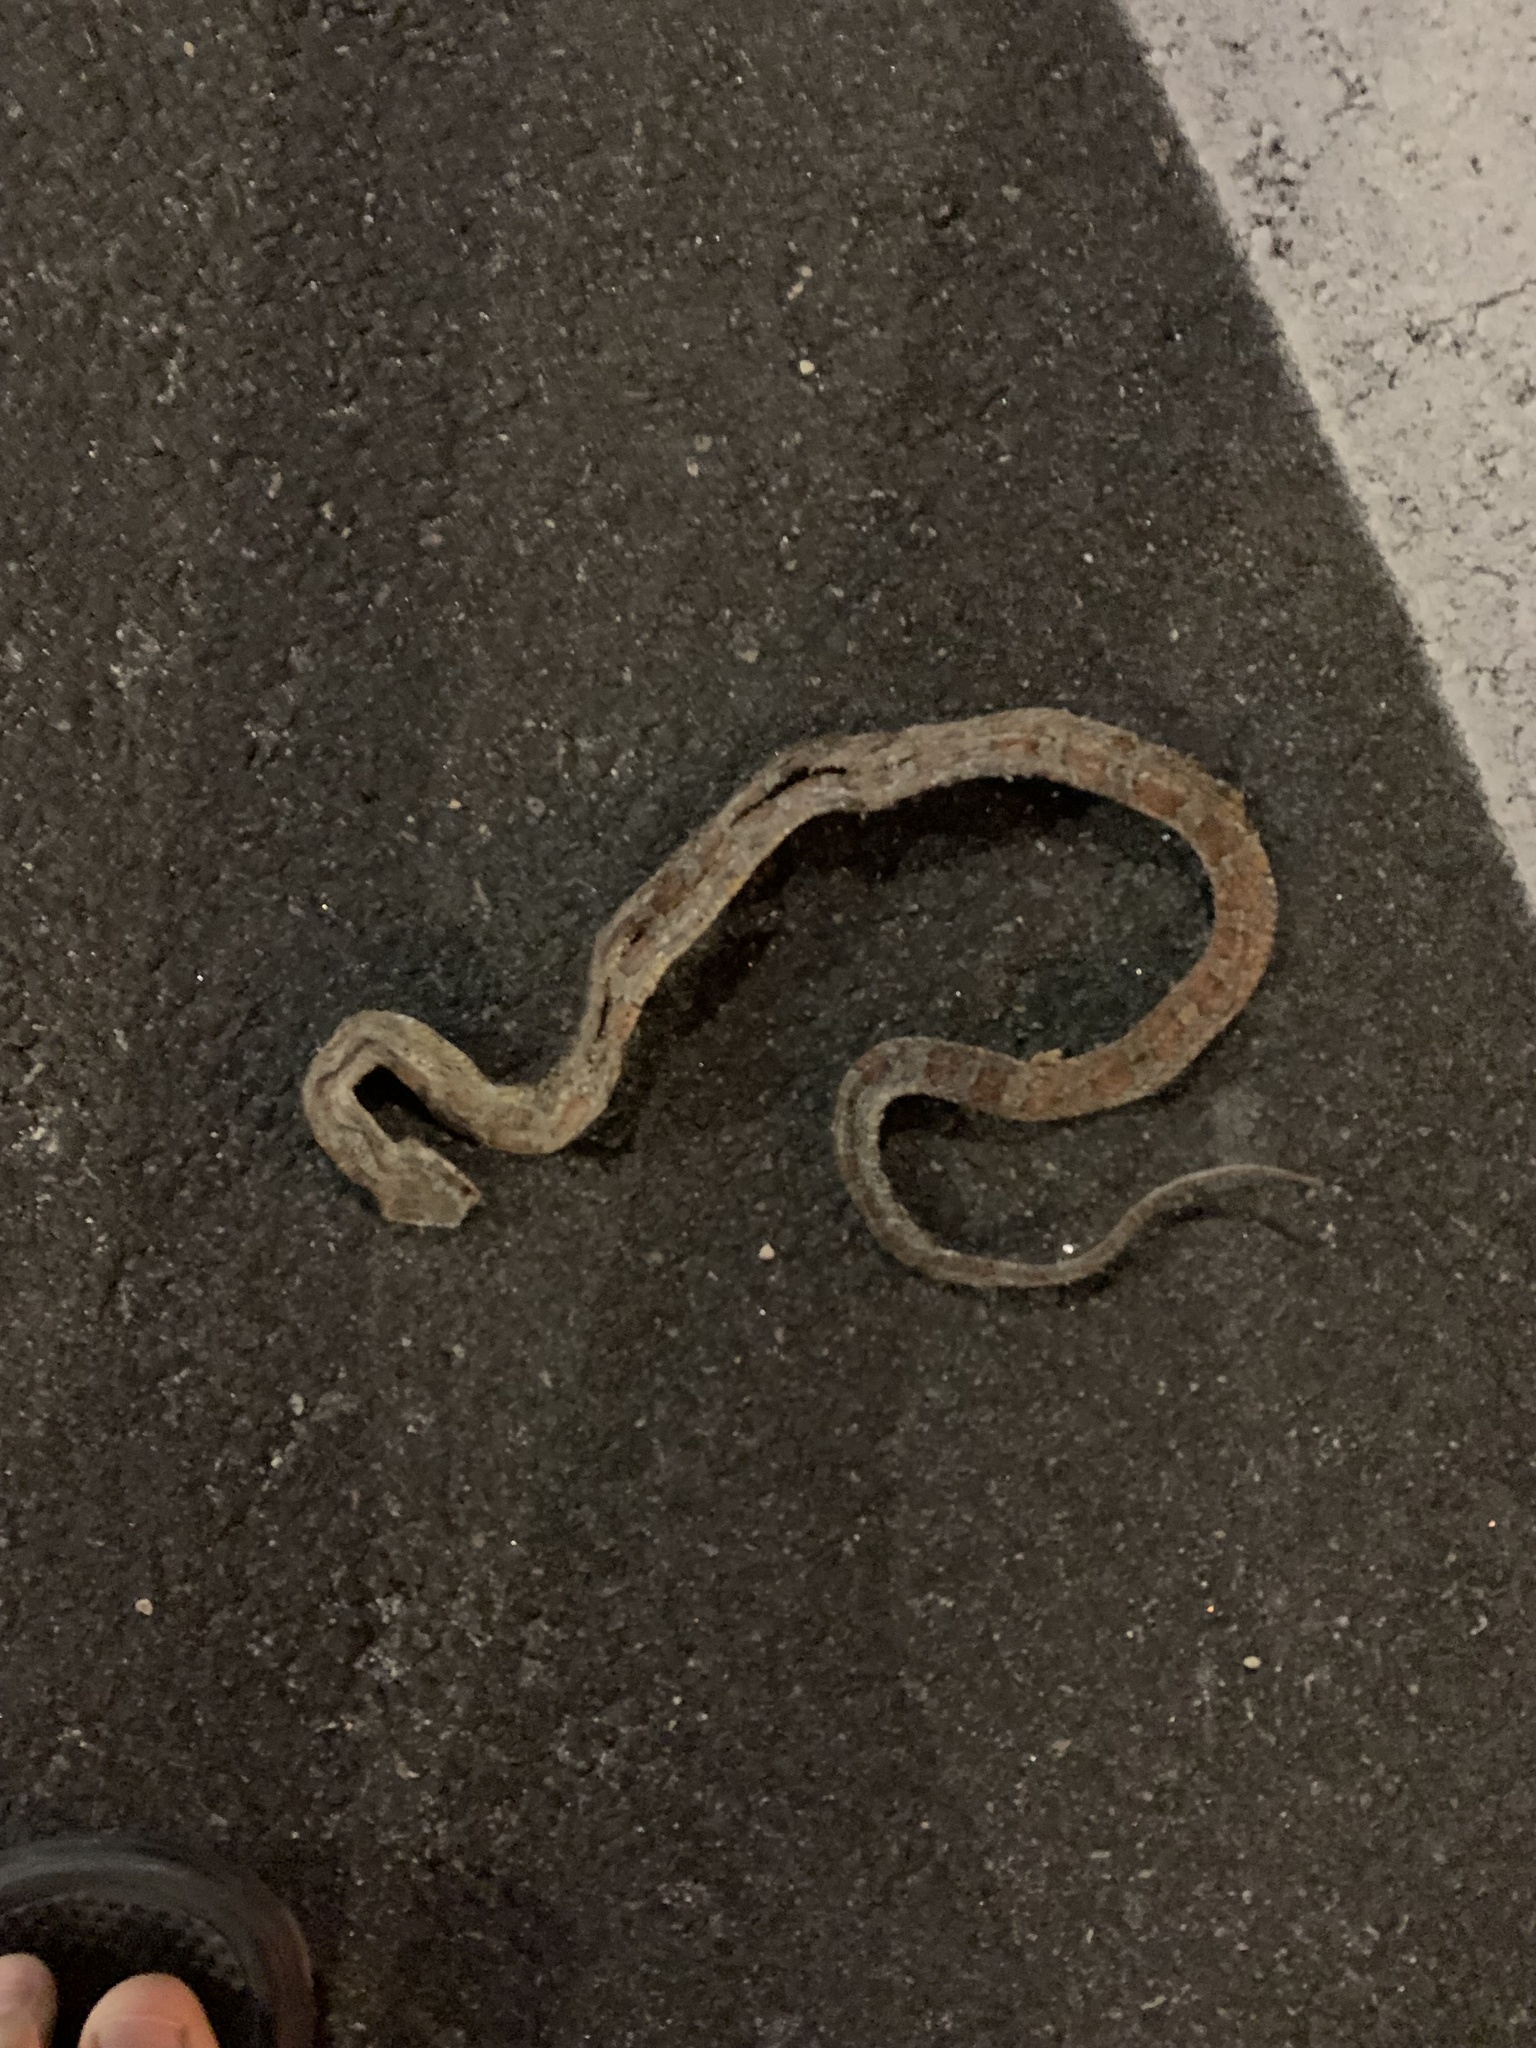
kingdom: Animalia
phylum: Chordata
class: Squamata
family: Colubridae
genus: Pantherophis
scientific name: Pantherophis guttatus
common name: Red cornsnake
